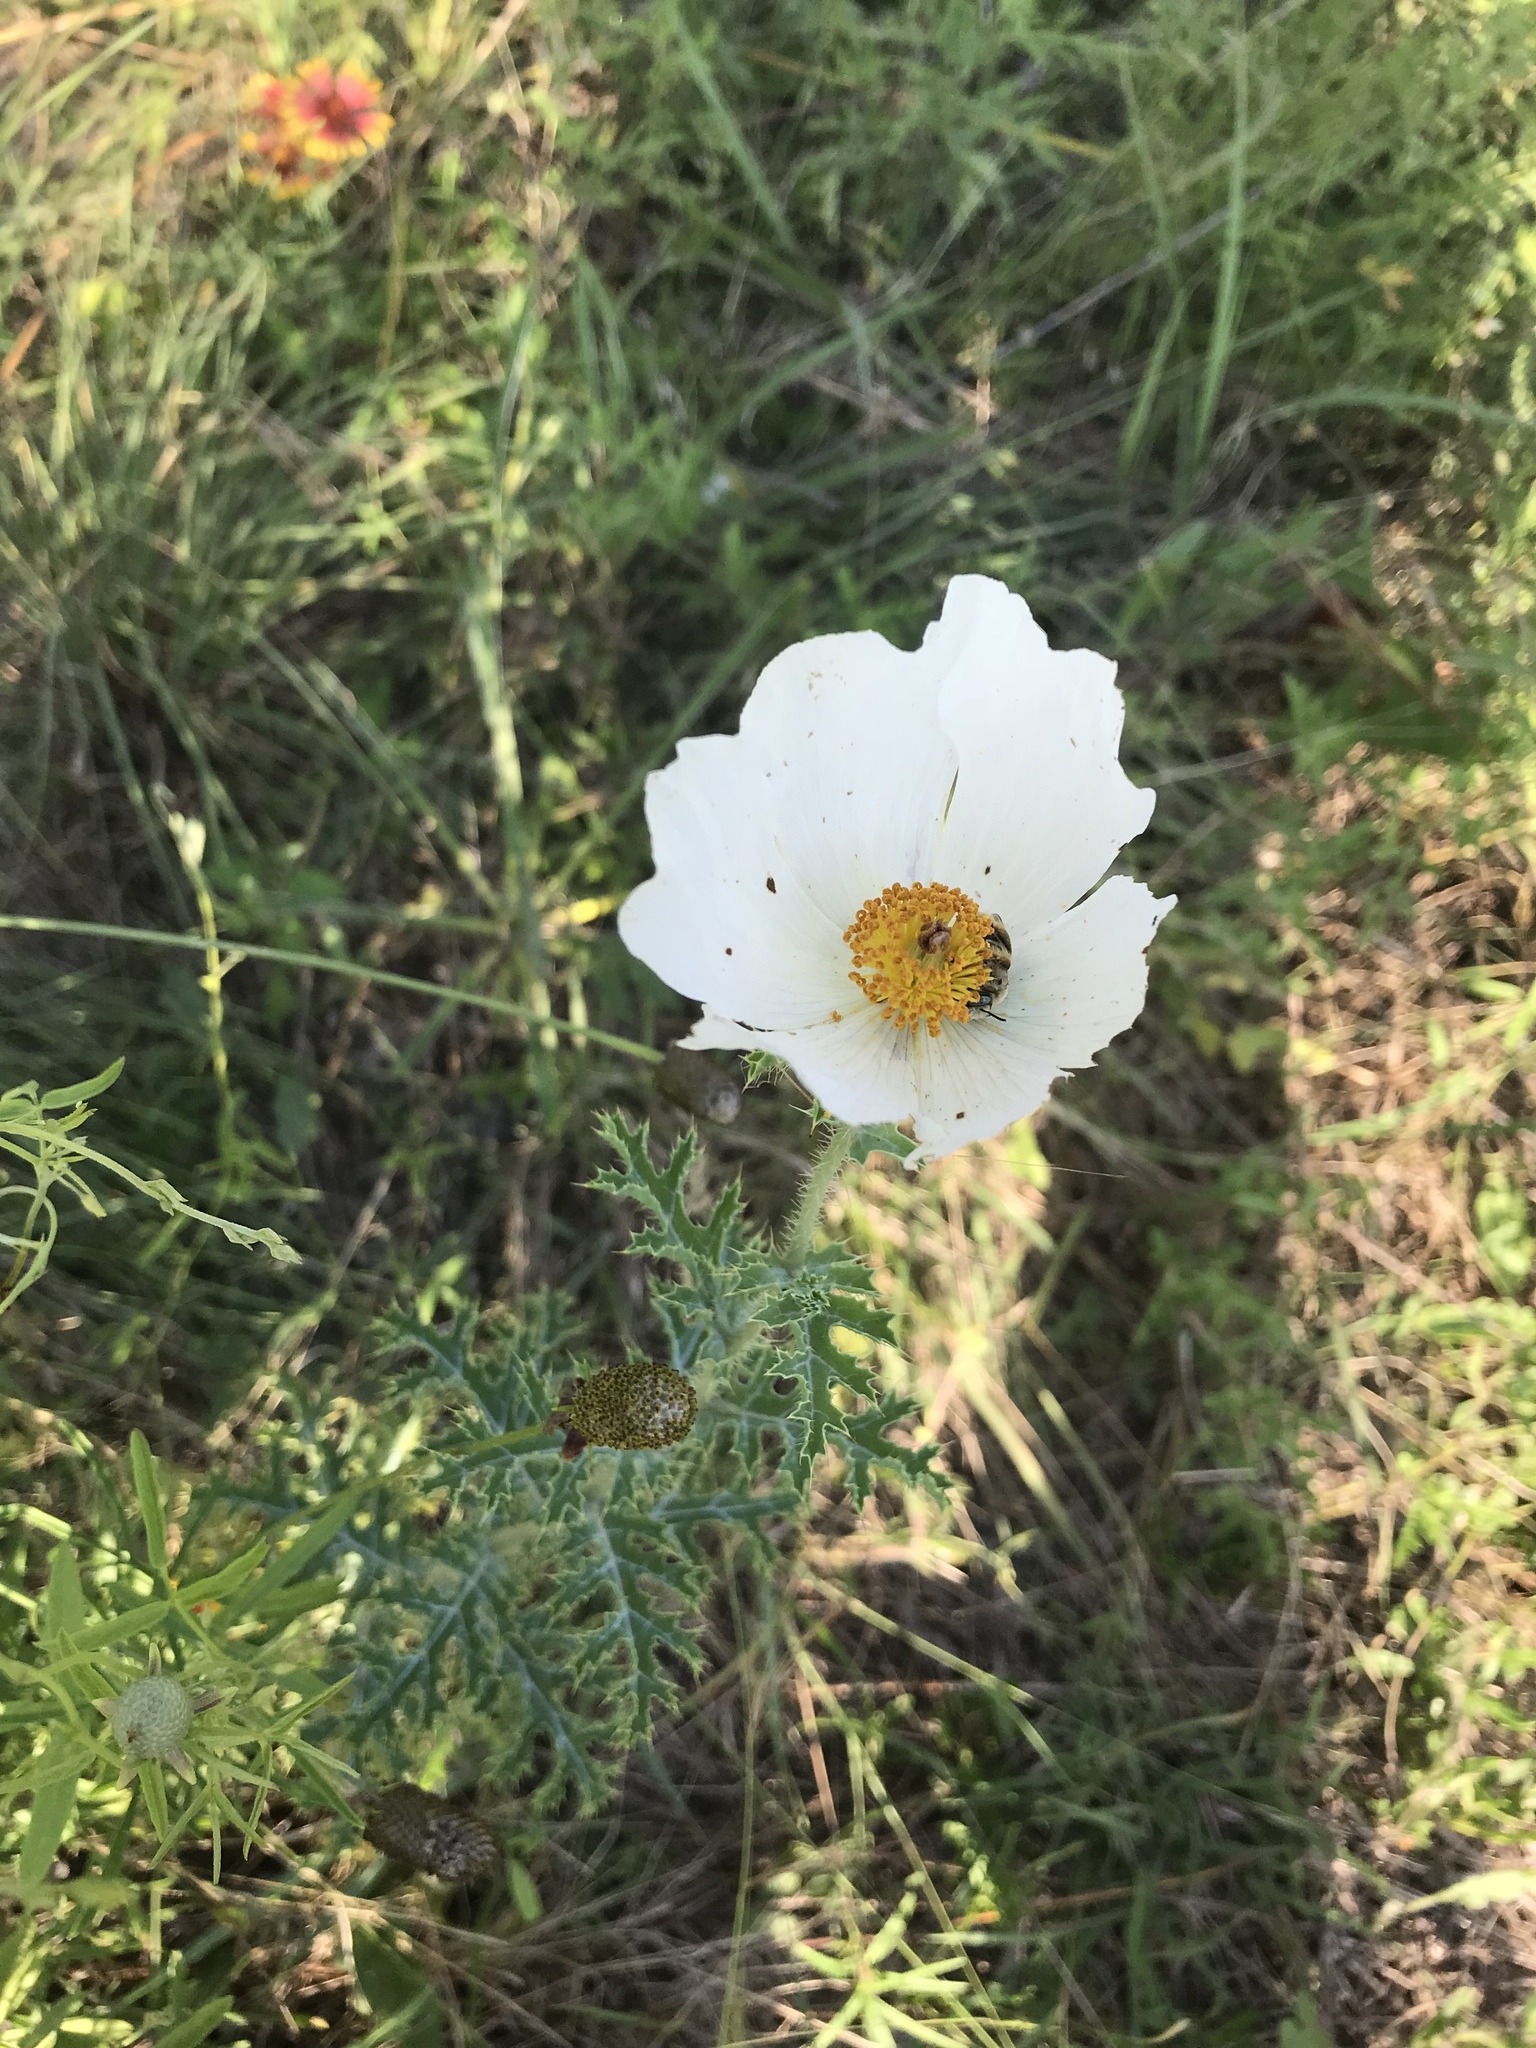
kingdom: Plantae
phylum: Tracheophyta
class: Magnoliopsida
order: Ranunculales
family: Papaveraceae
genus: Argemone
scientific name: Argemone albiflora
